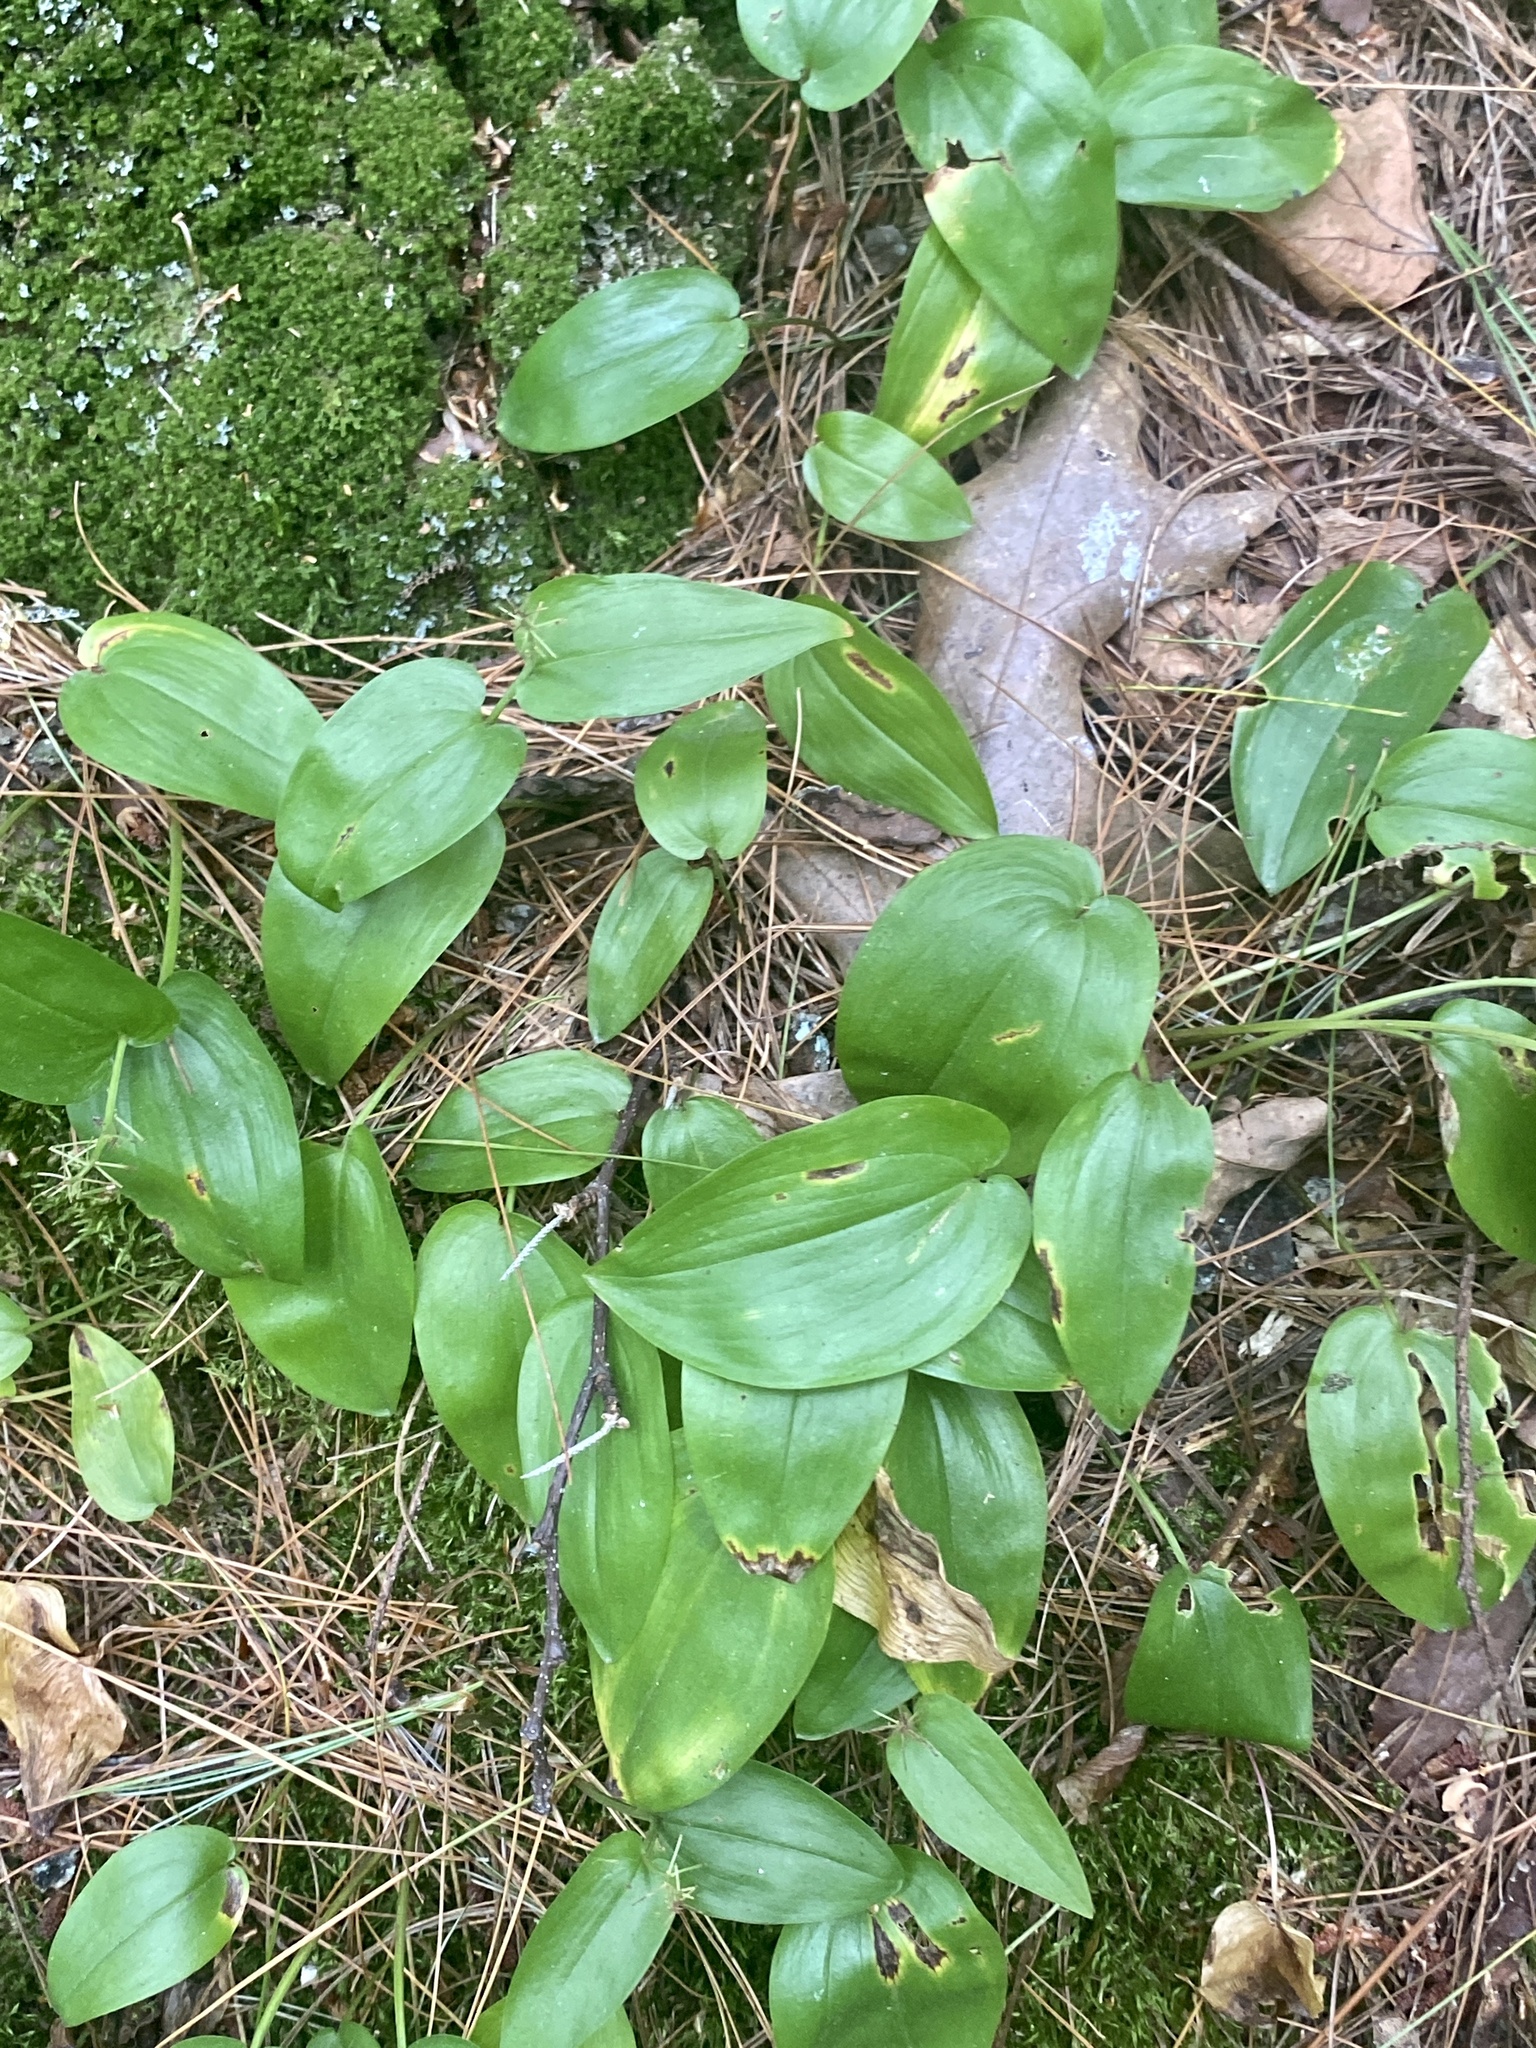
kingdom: Plantae
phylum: Tracheophyta
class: Liliopsida
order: Asparagales
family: Asparagaceae
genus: Maianthemum
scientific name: Maianthemum canadense
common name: False lily-of-the-valley
